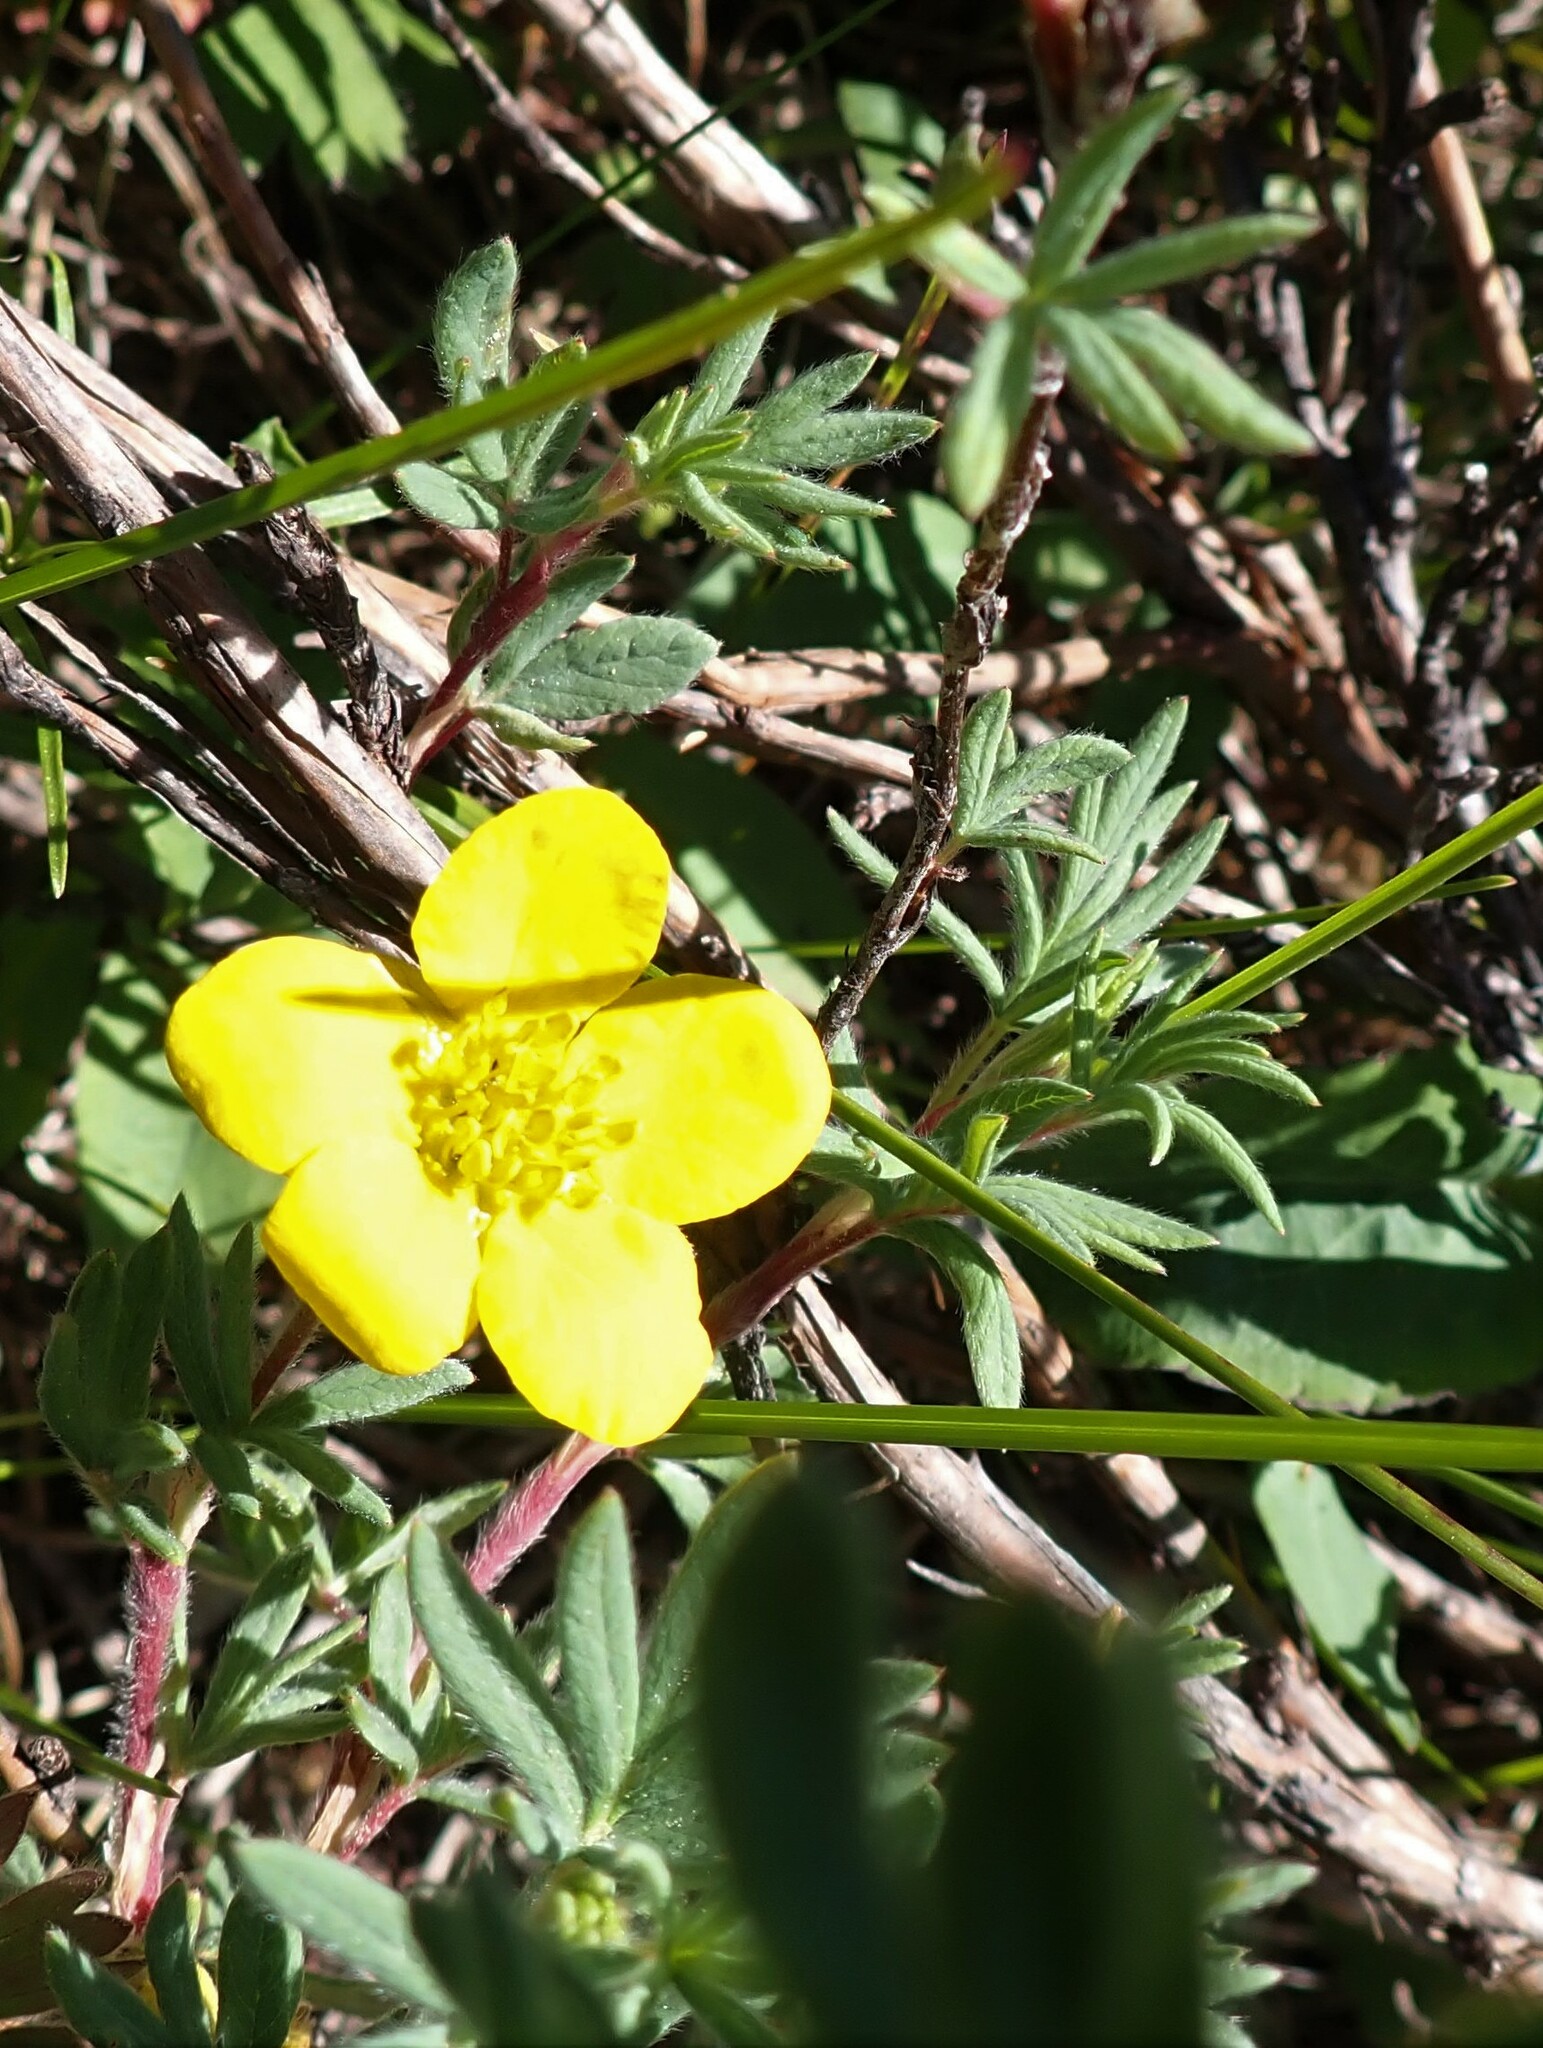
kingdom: Plantae
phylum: Tracheophyta
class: Magnoliopsida
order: Rosales
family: Rosaceae
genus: Dasiphora
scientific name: Dasiphora fruticosa
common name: Shrubby cinquefoil
